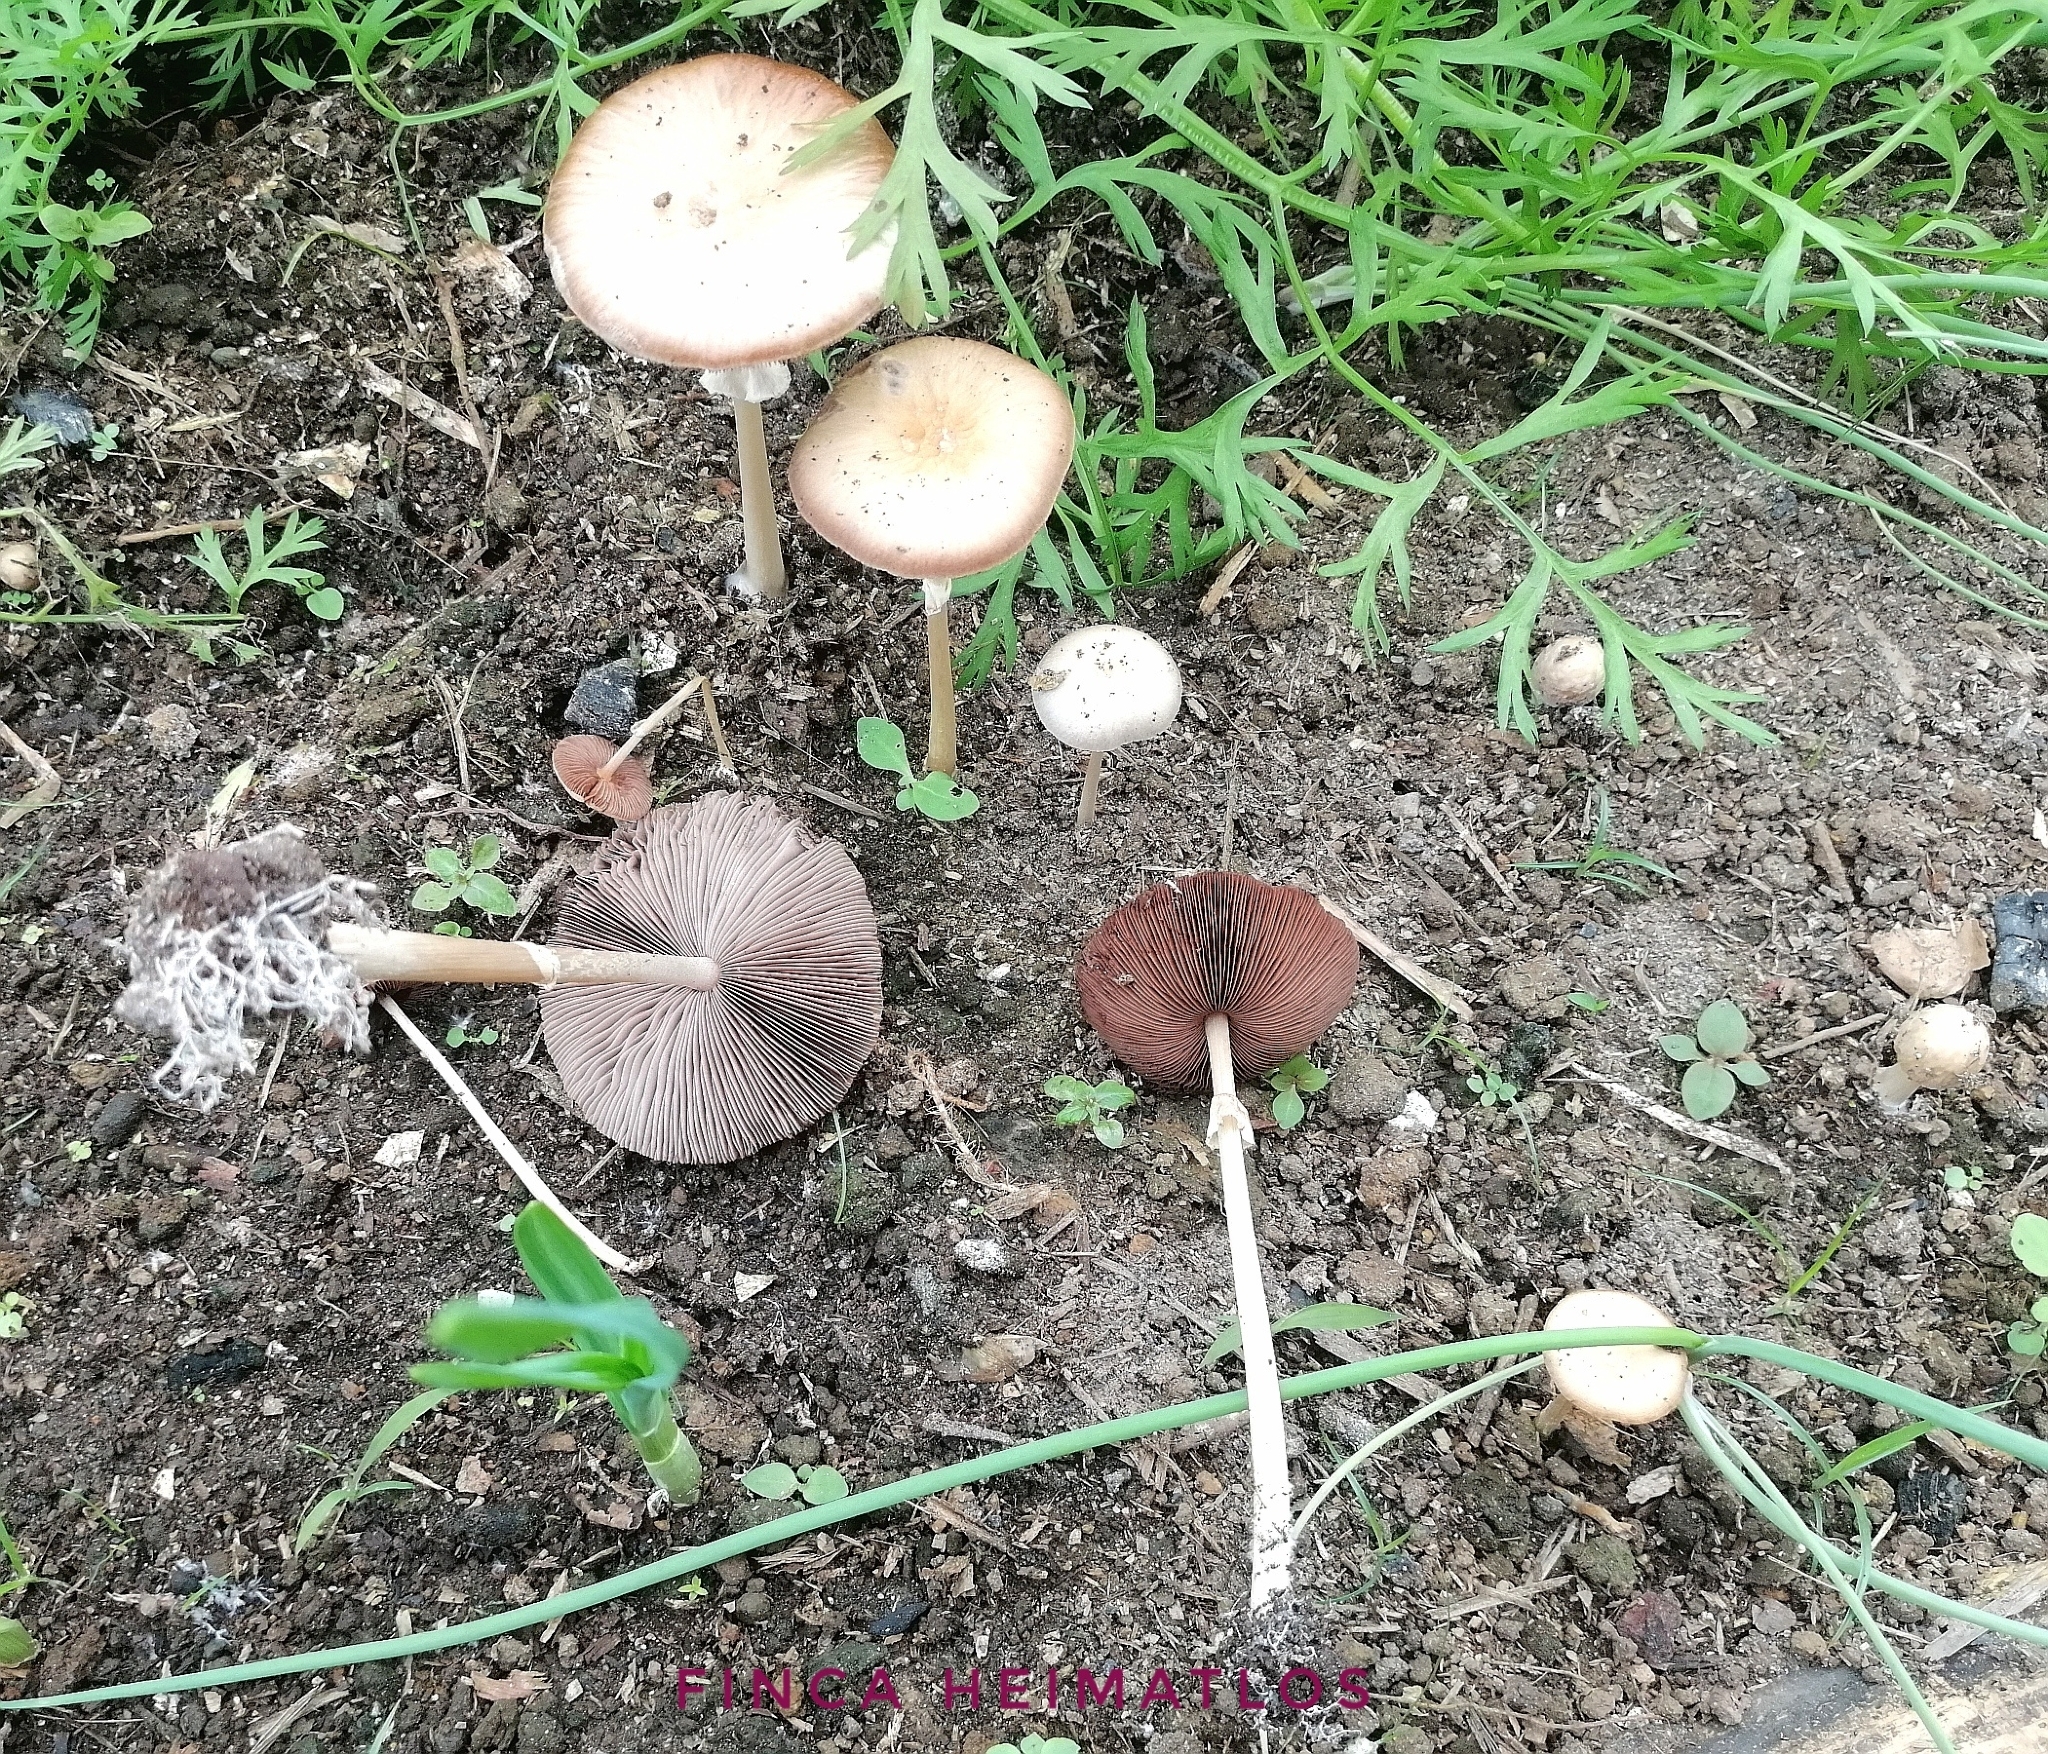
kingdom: Fungi
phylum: Basidiomycota
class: Agaricomycetes
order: Agaricales
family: Strophariaceae
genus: Agrocybe
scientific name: Agrocybe rivulosa
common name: Wrinkled fieldcap
